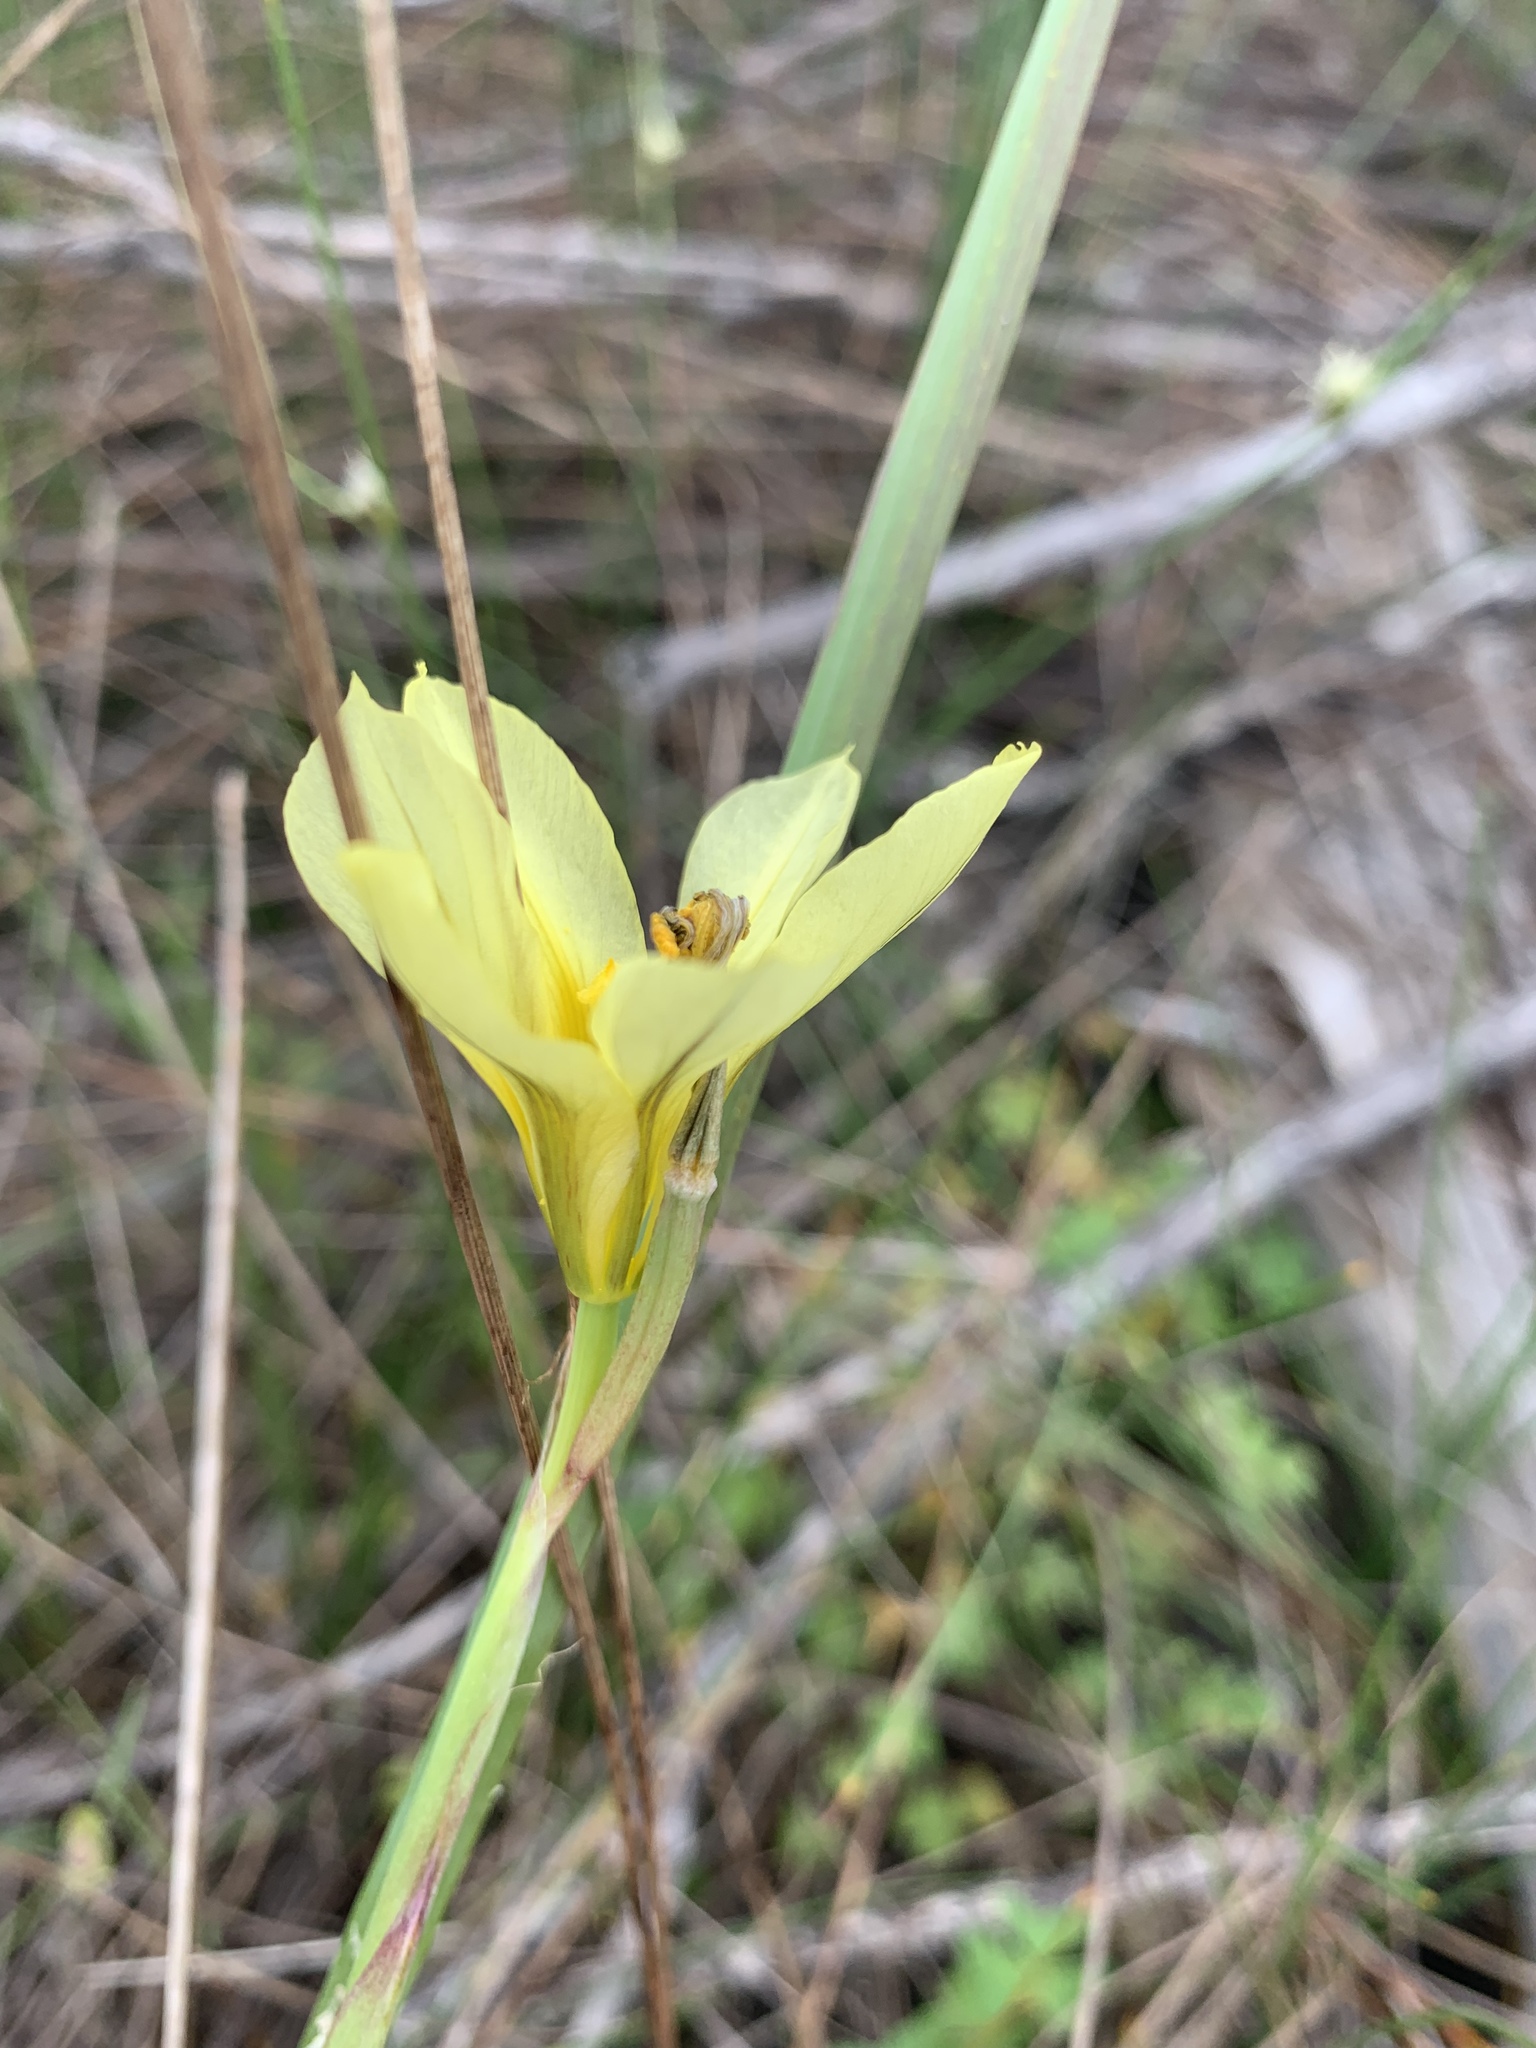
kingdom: Plantae
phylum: Tracheophyta
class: Liliopsida
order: Asparagales
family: Iridaceae
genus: Moraea
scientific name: Moraea collina
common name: Cape-tulip
